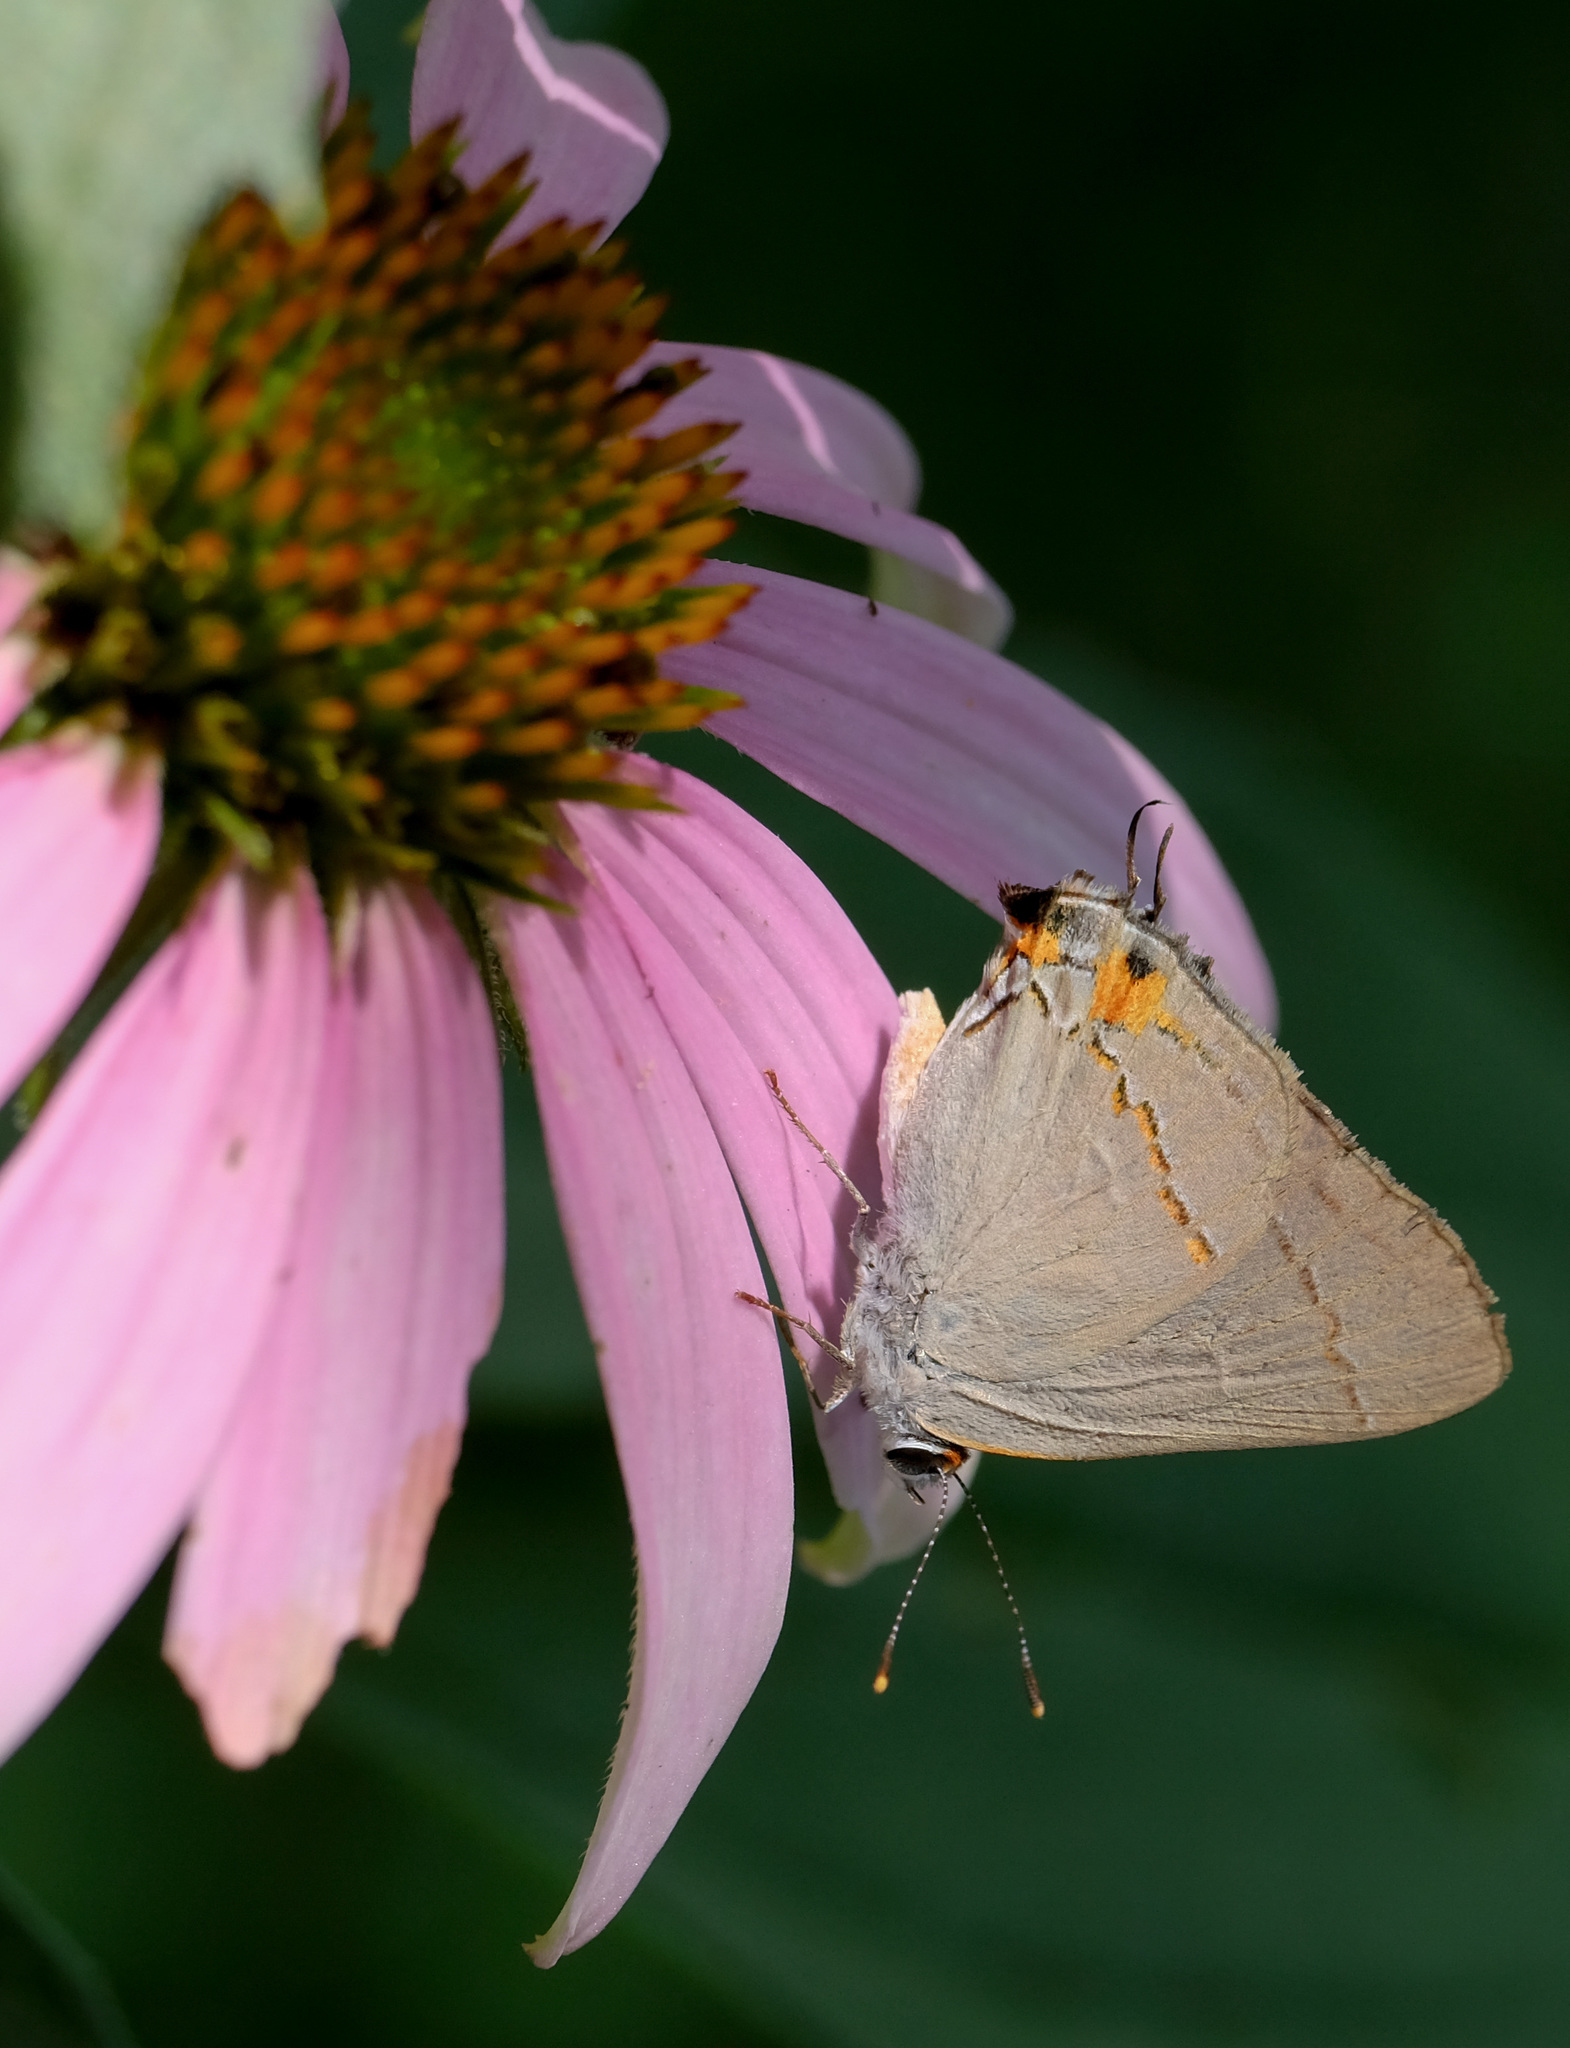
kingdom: Animalia
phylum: Arthropoda
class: Insecta
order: Lepidoptera
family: Lycaenidae
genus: Strymon
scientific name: Strymon melinus
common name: Gray hairstreak
